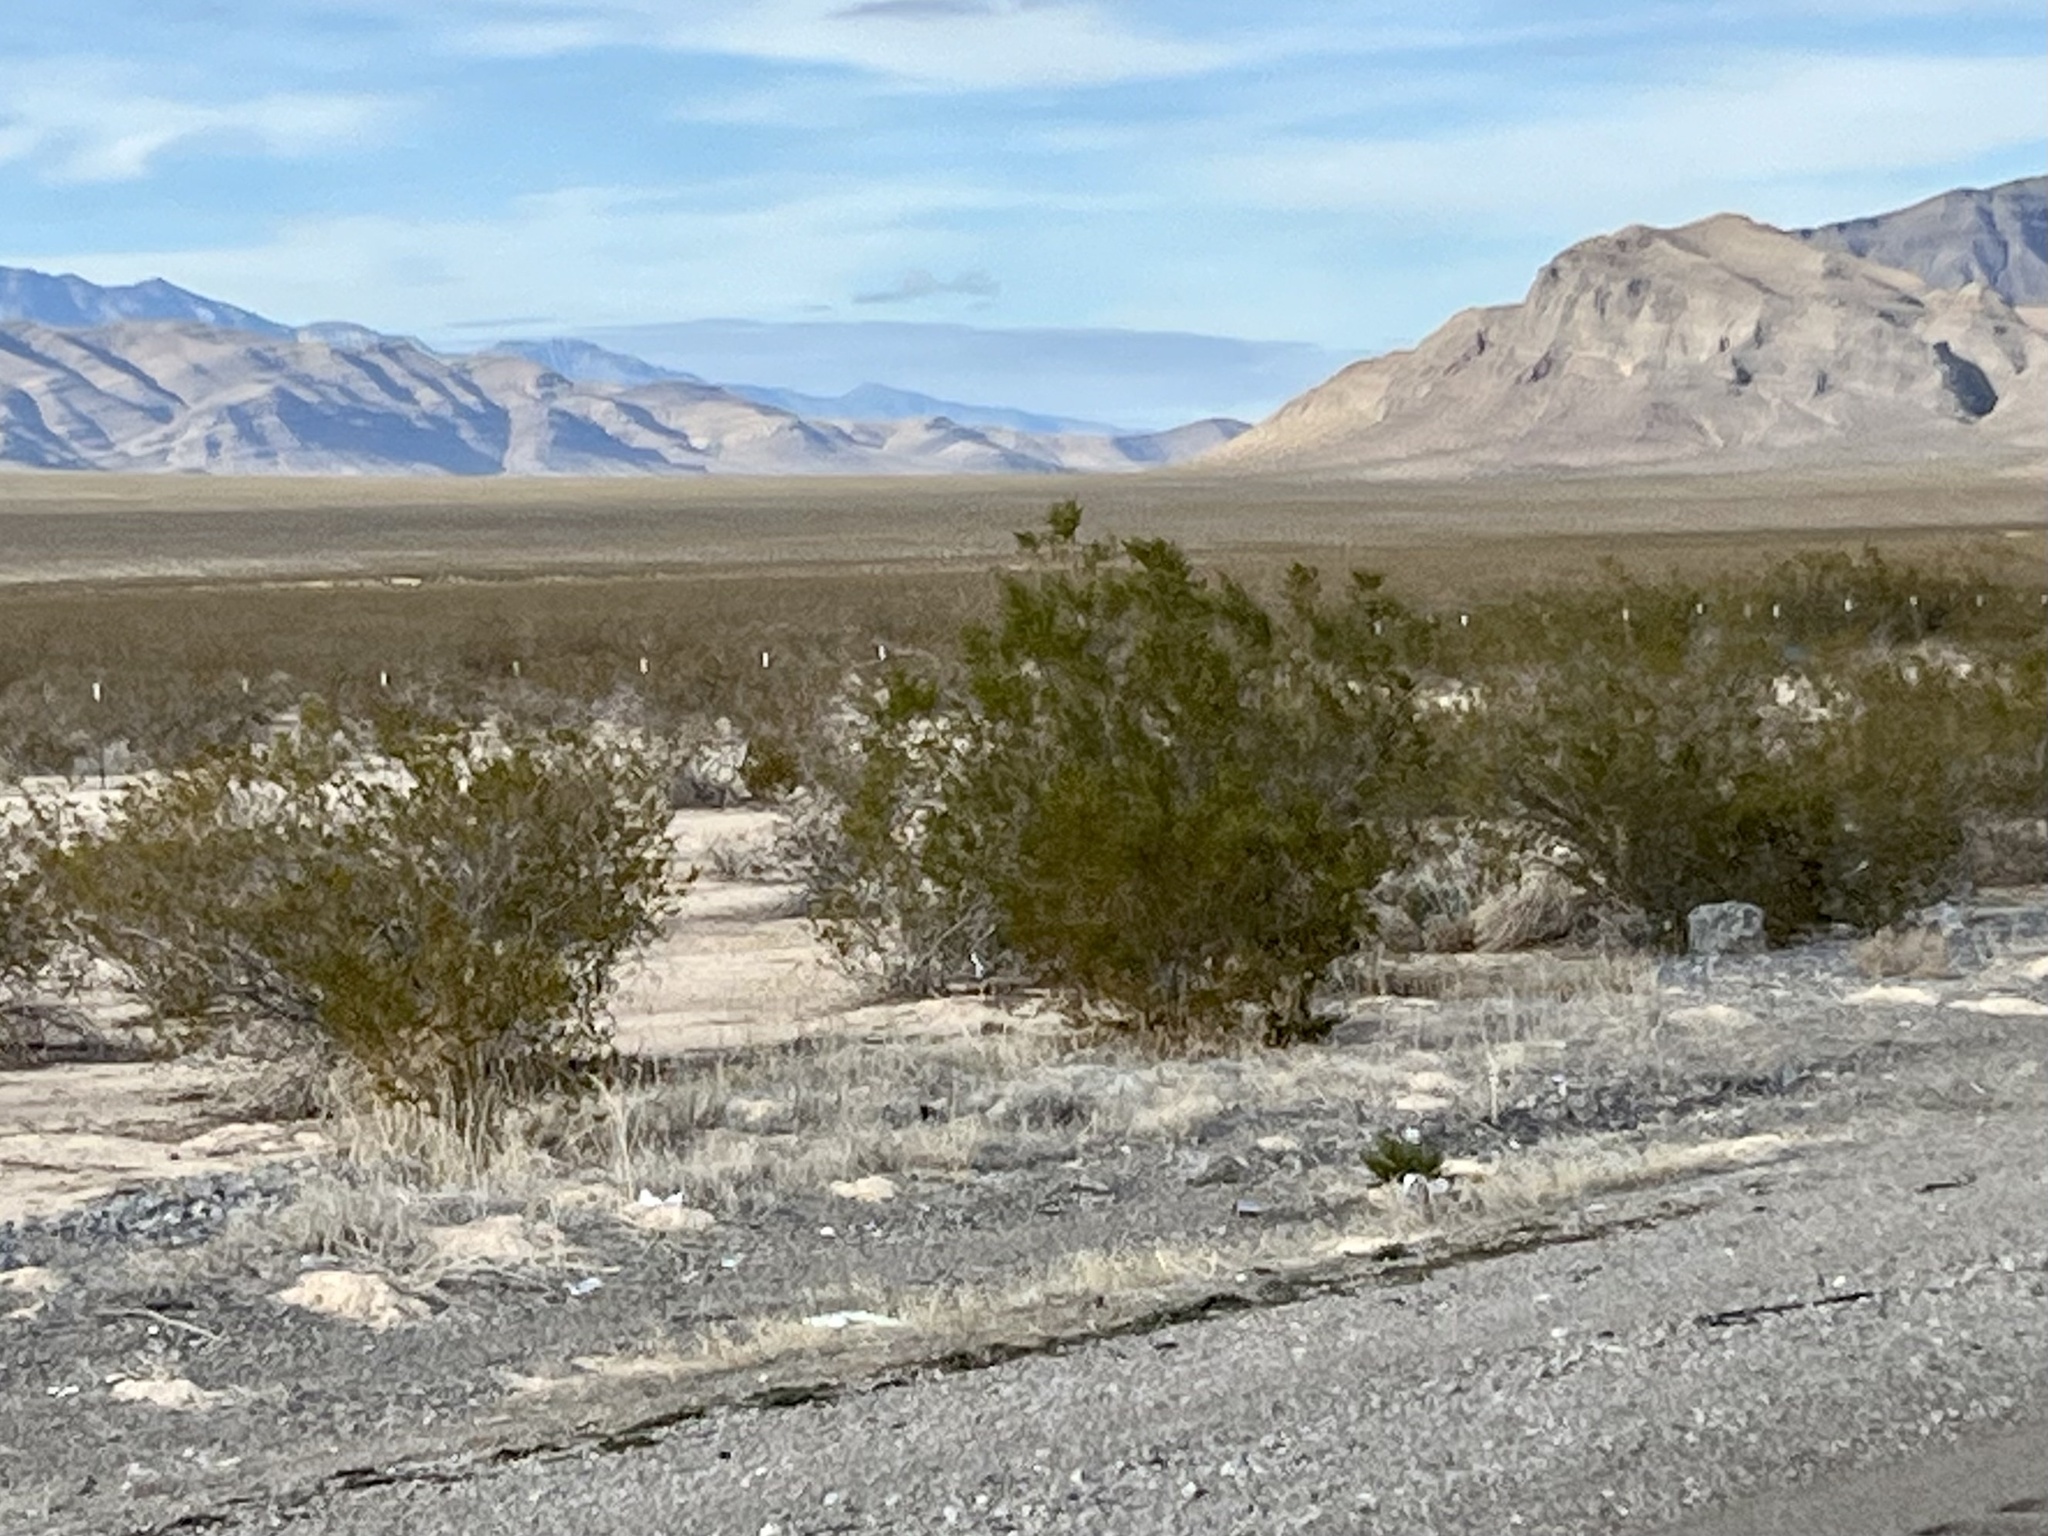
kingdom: Plantae
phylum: Tracheophyta
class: Magnoliopsida
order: Zygophyllales
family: Zygophyllaceae
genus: Larrea
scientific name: Larrea tridentata
